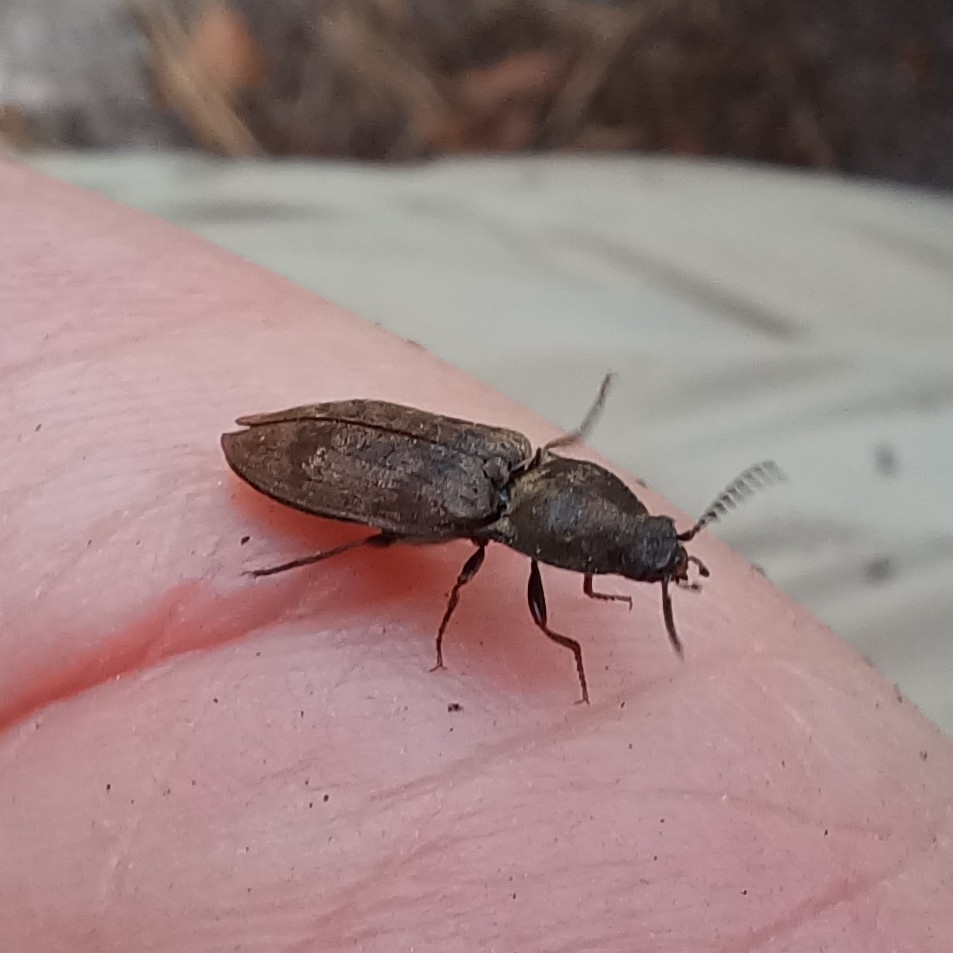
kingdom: Animalia
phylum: Arthropoda
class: Insecta
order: Coleoptera
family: Elateridae
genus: Prosternon
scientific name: Prosternon tessellatum
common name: Chequered click beetle
